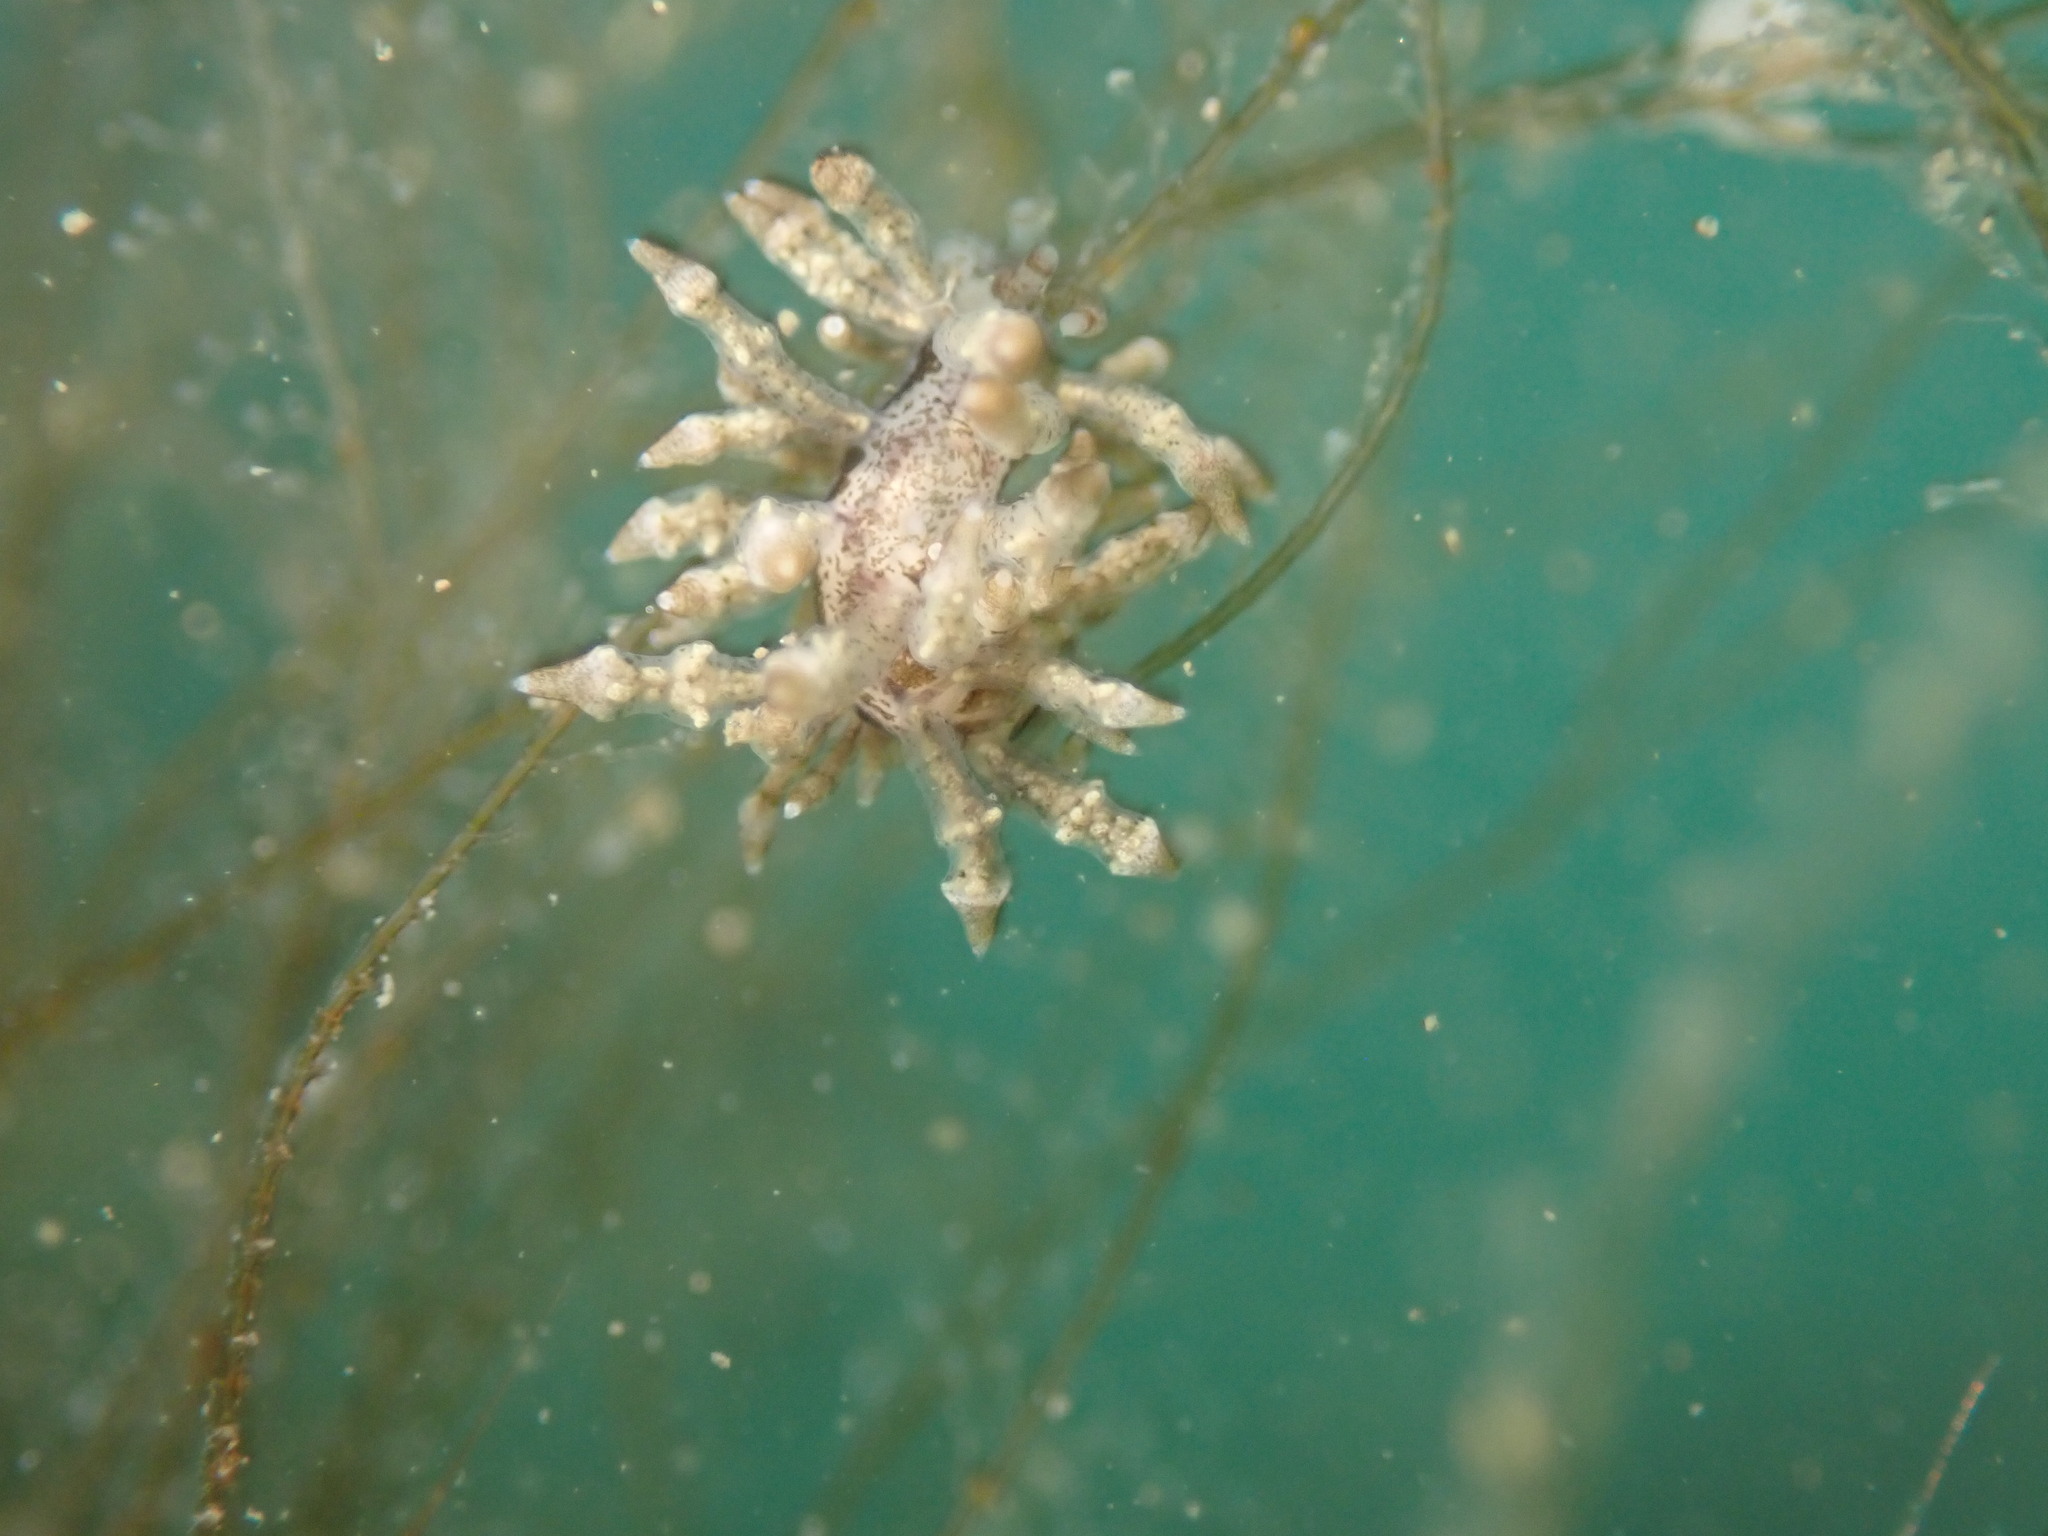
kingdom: Animalia
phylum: Mollusca
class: Gastropoda
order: Nudibranchia
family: Eubranchidae
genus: Eubranchus
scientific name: Eubranchus rustyus
